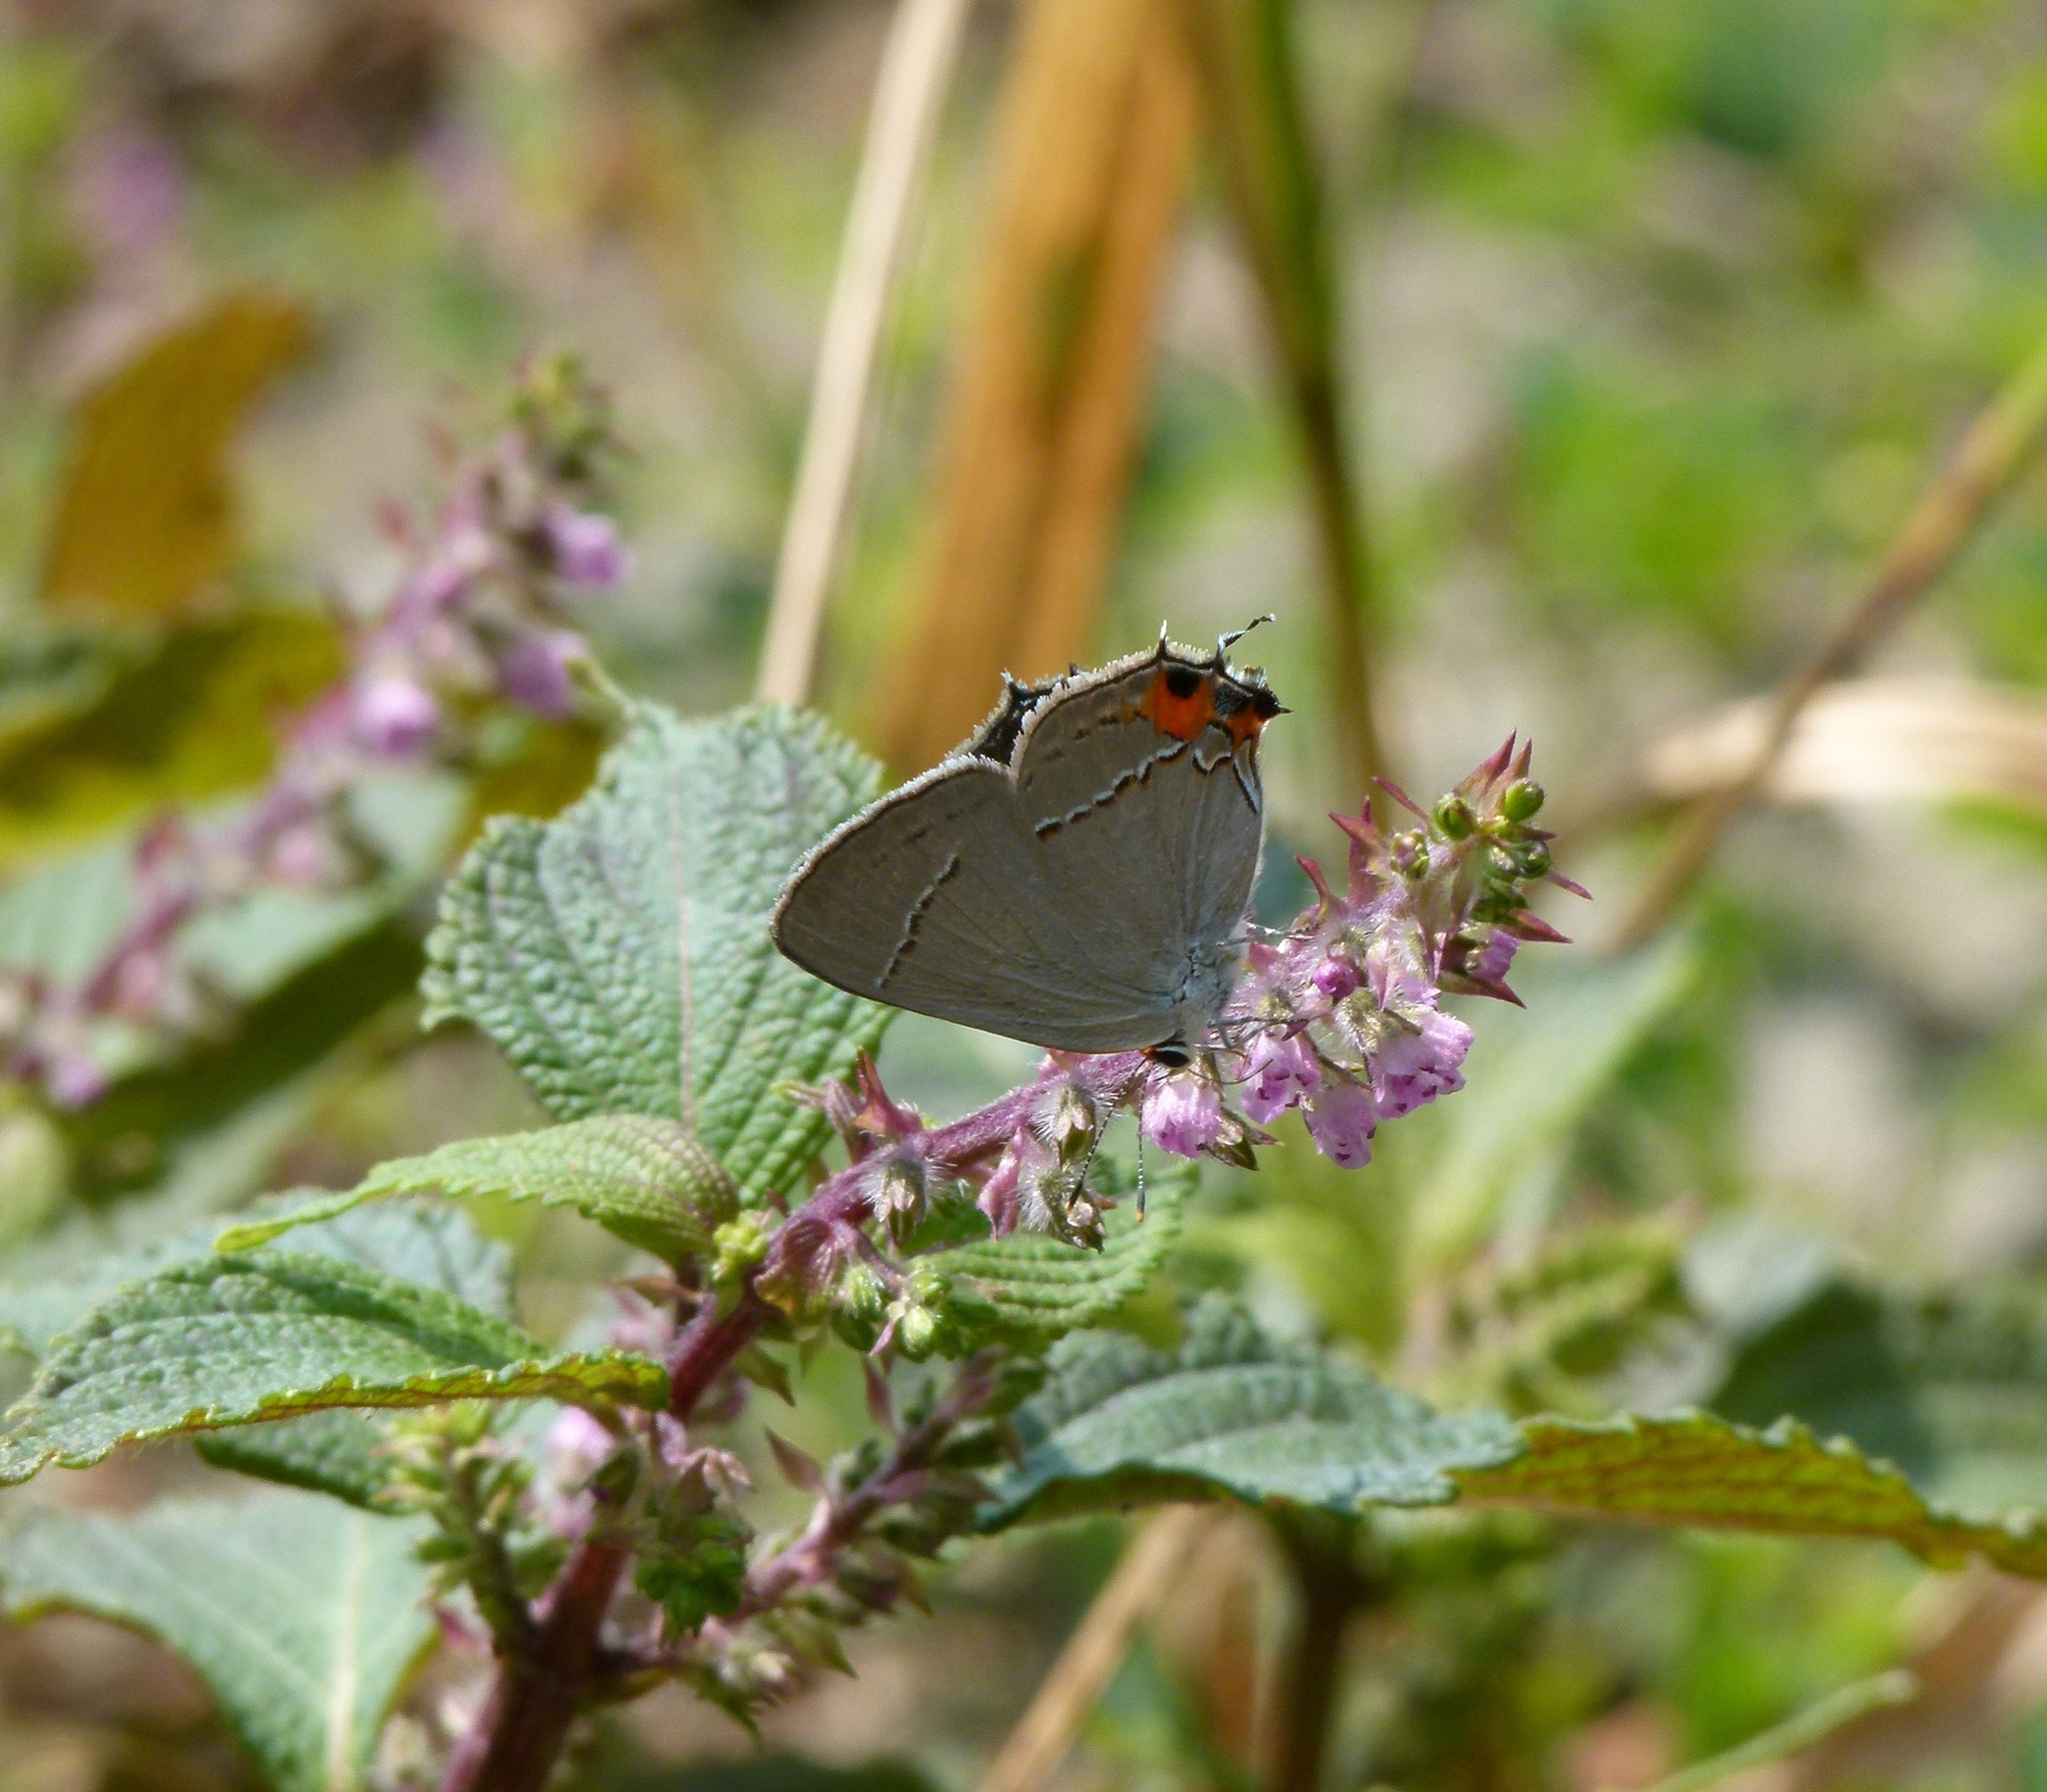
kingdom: Animalia
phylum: Arthropoda
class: Insecta
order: Lepidoptera
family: Lycaenidae
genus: Strymon
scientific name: Strymon melinus
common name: Gray hairstreak
